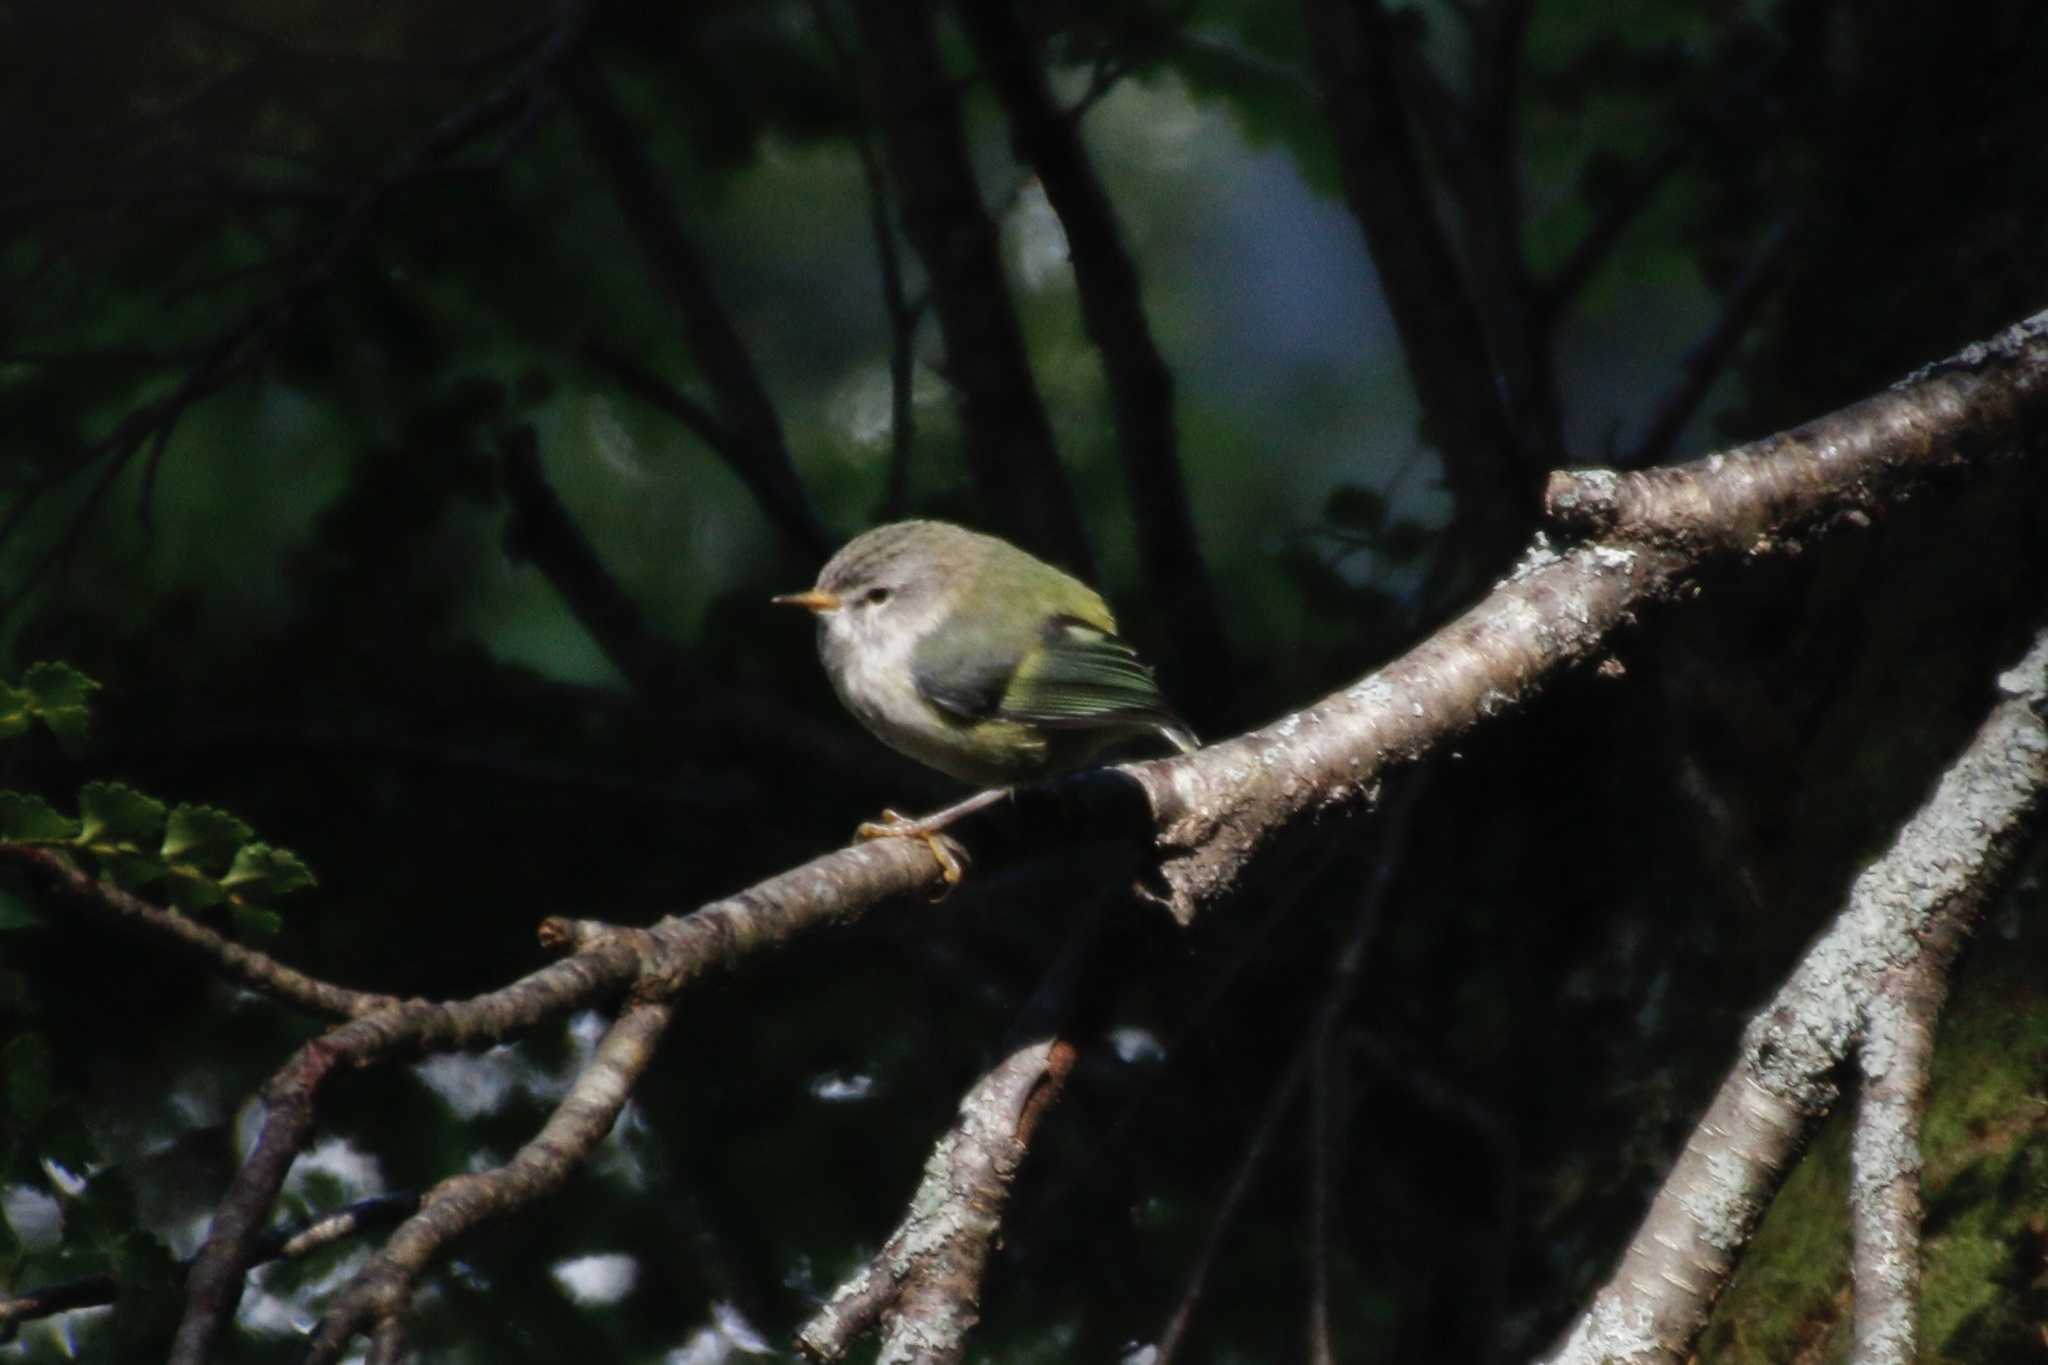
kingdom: Animalia
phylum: Chordata
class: Aves
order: Passeriformes
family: Acanthisittidae
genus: Acanthisitta
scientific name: Acanthisitta chloris
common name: Rifleman
